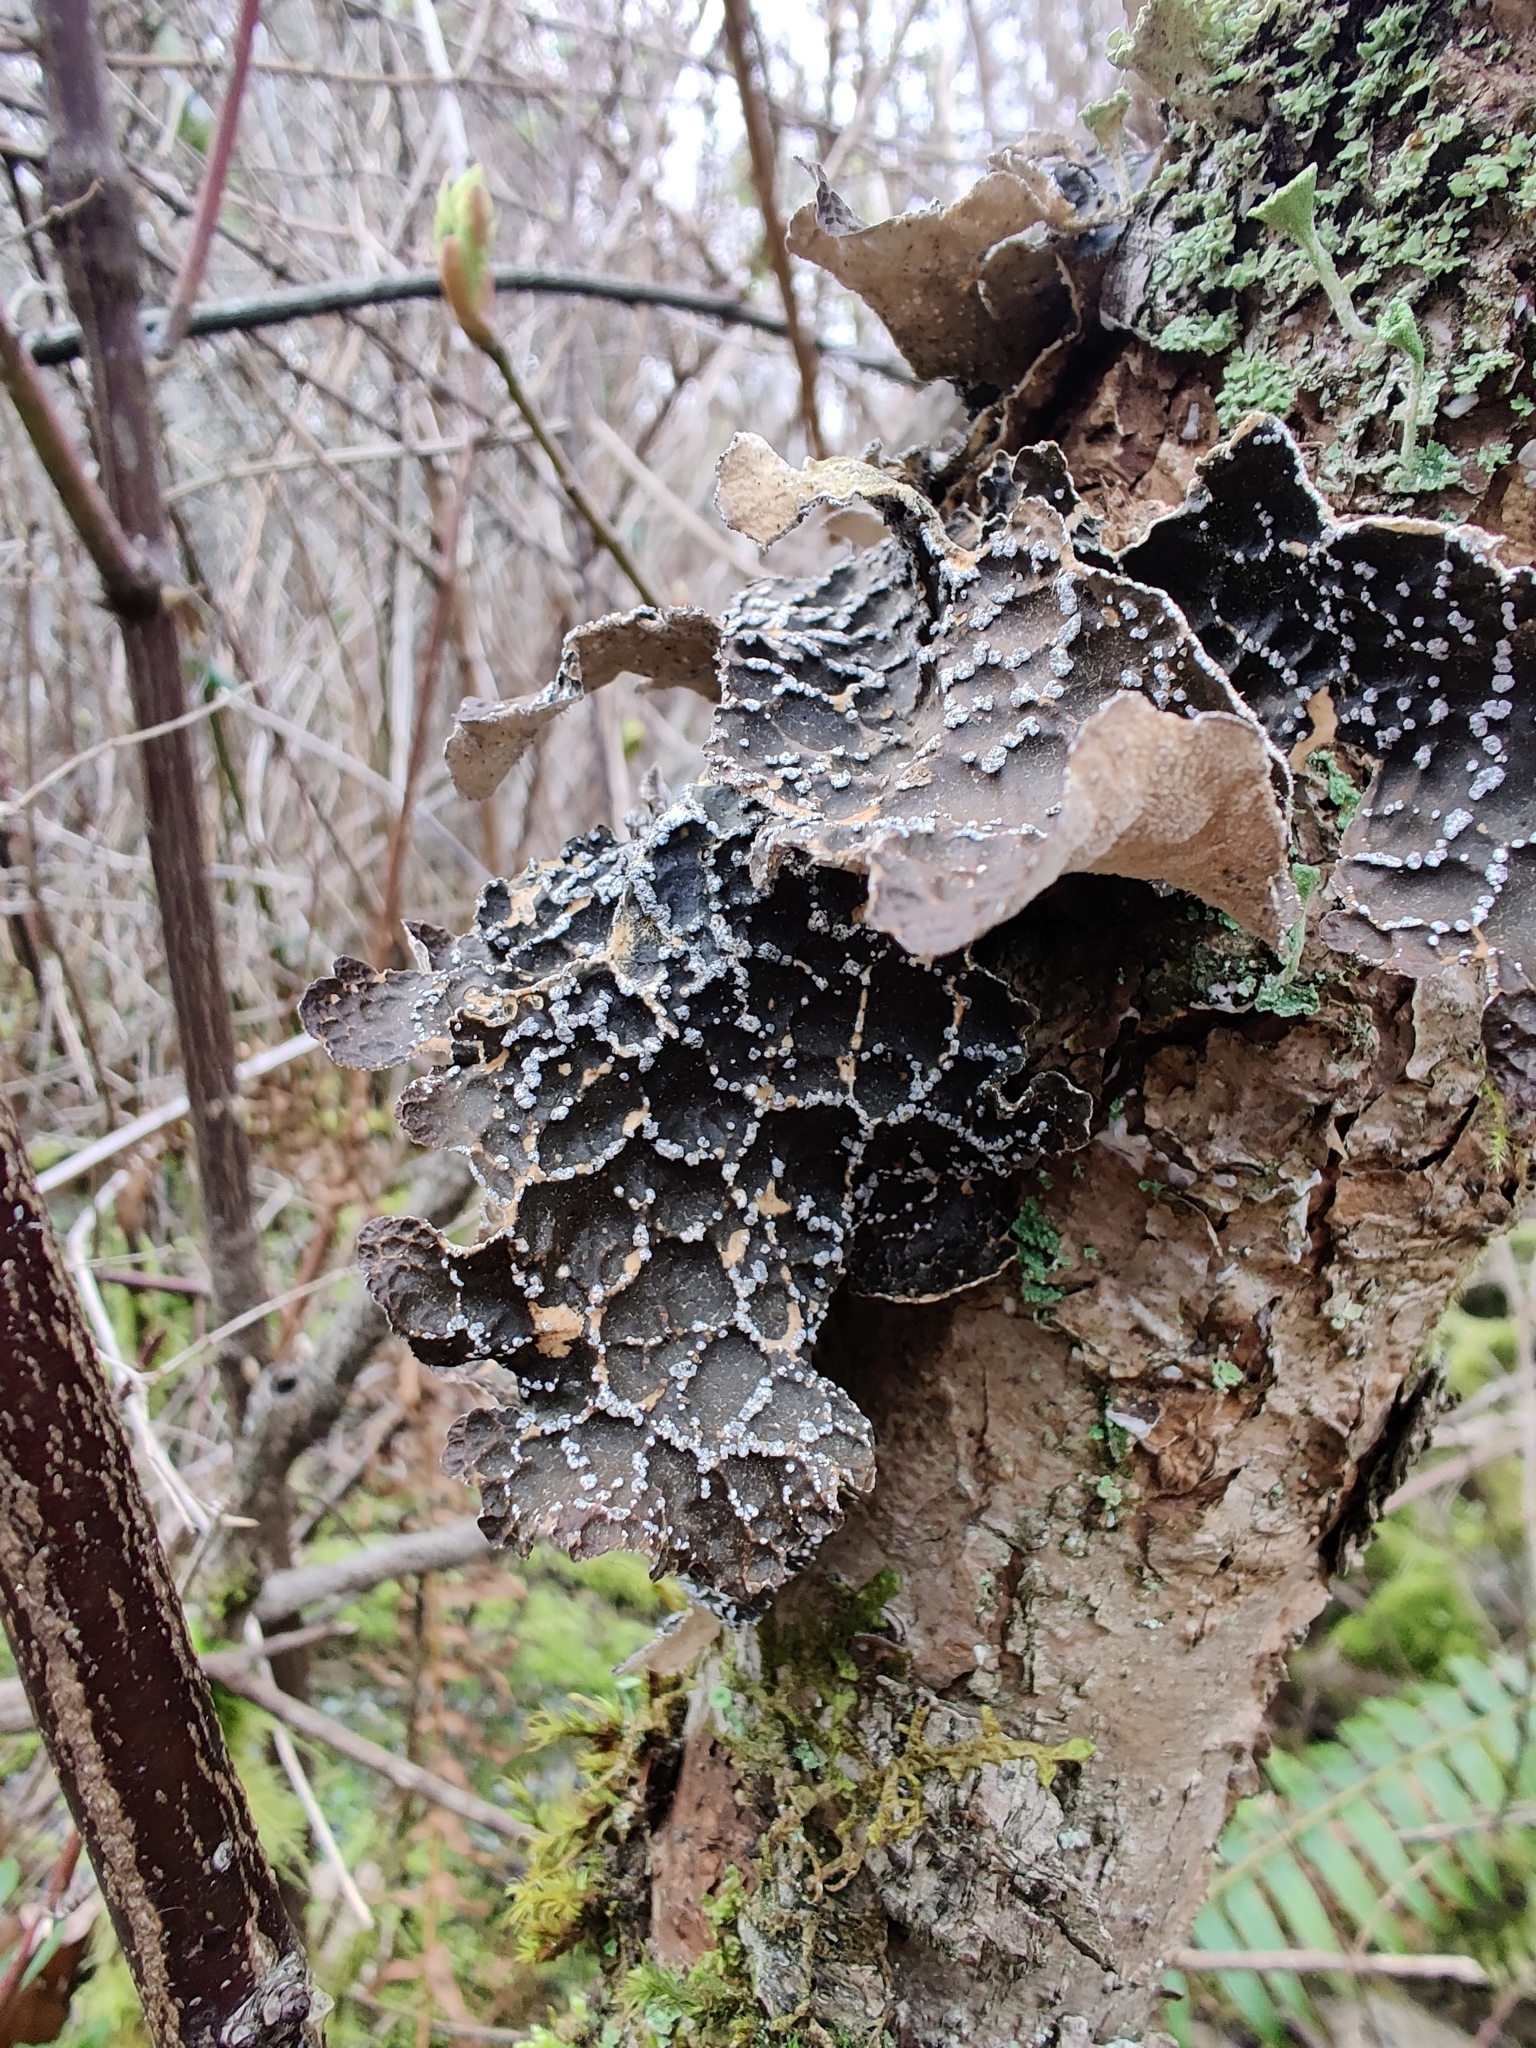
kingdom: Fungi
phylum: Ascomycota
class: Lecanoromycetes
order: Peltigerales
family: Lobariaceae
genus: Lobaria
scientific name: Lobaria anomala
